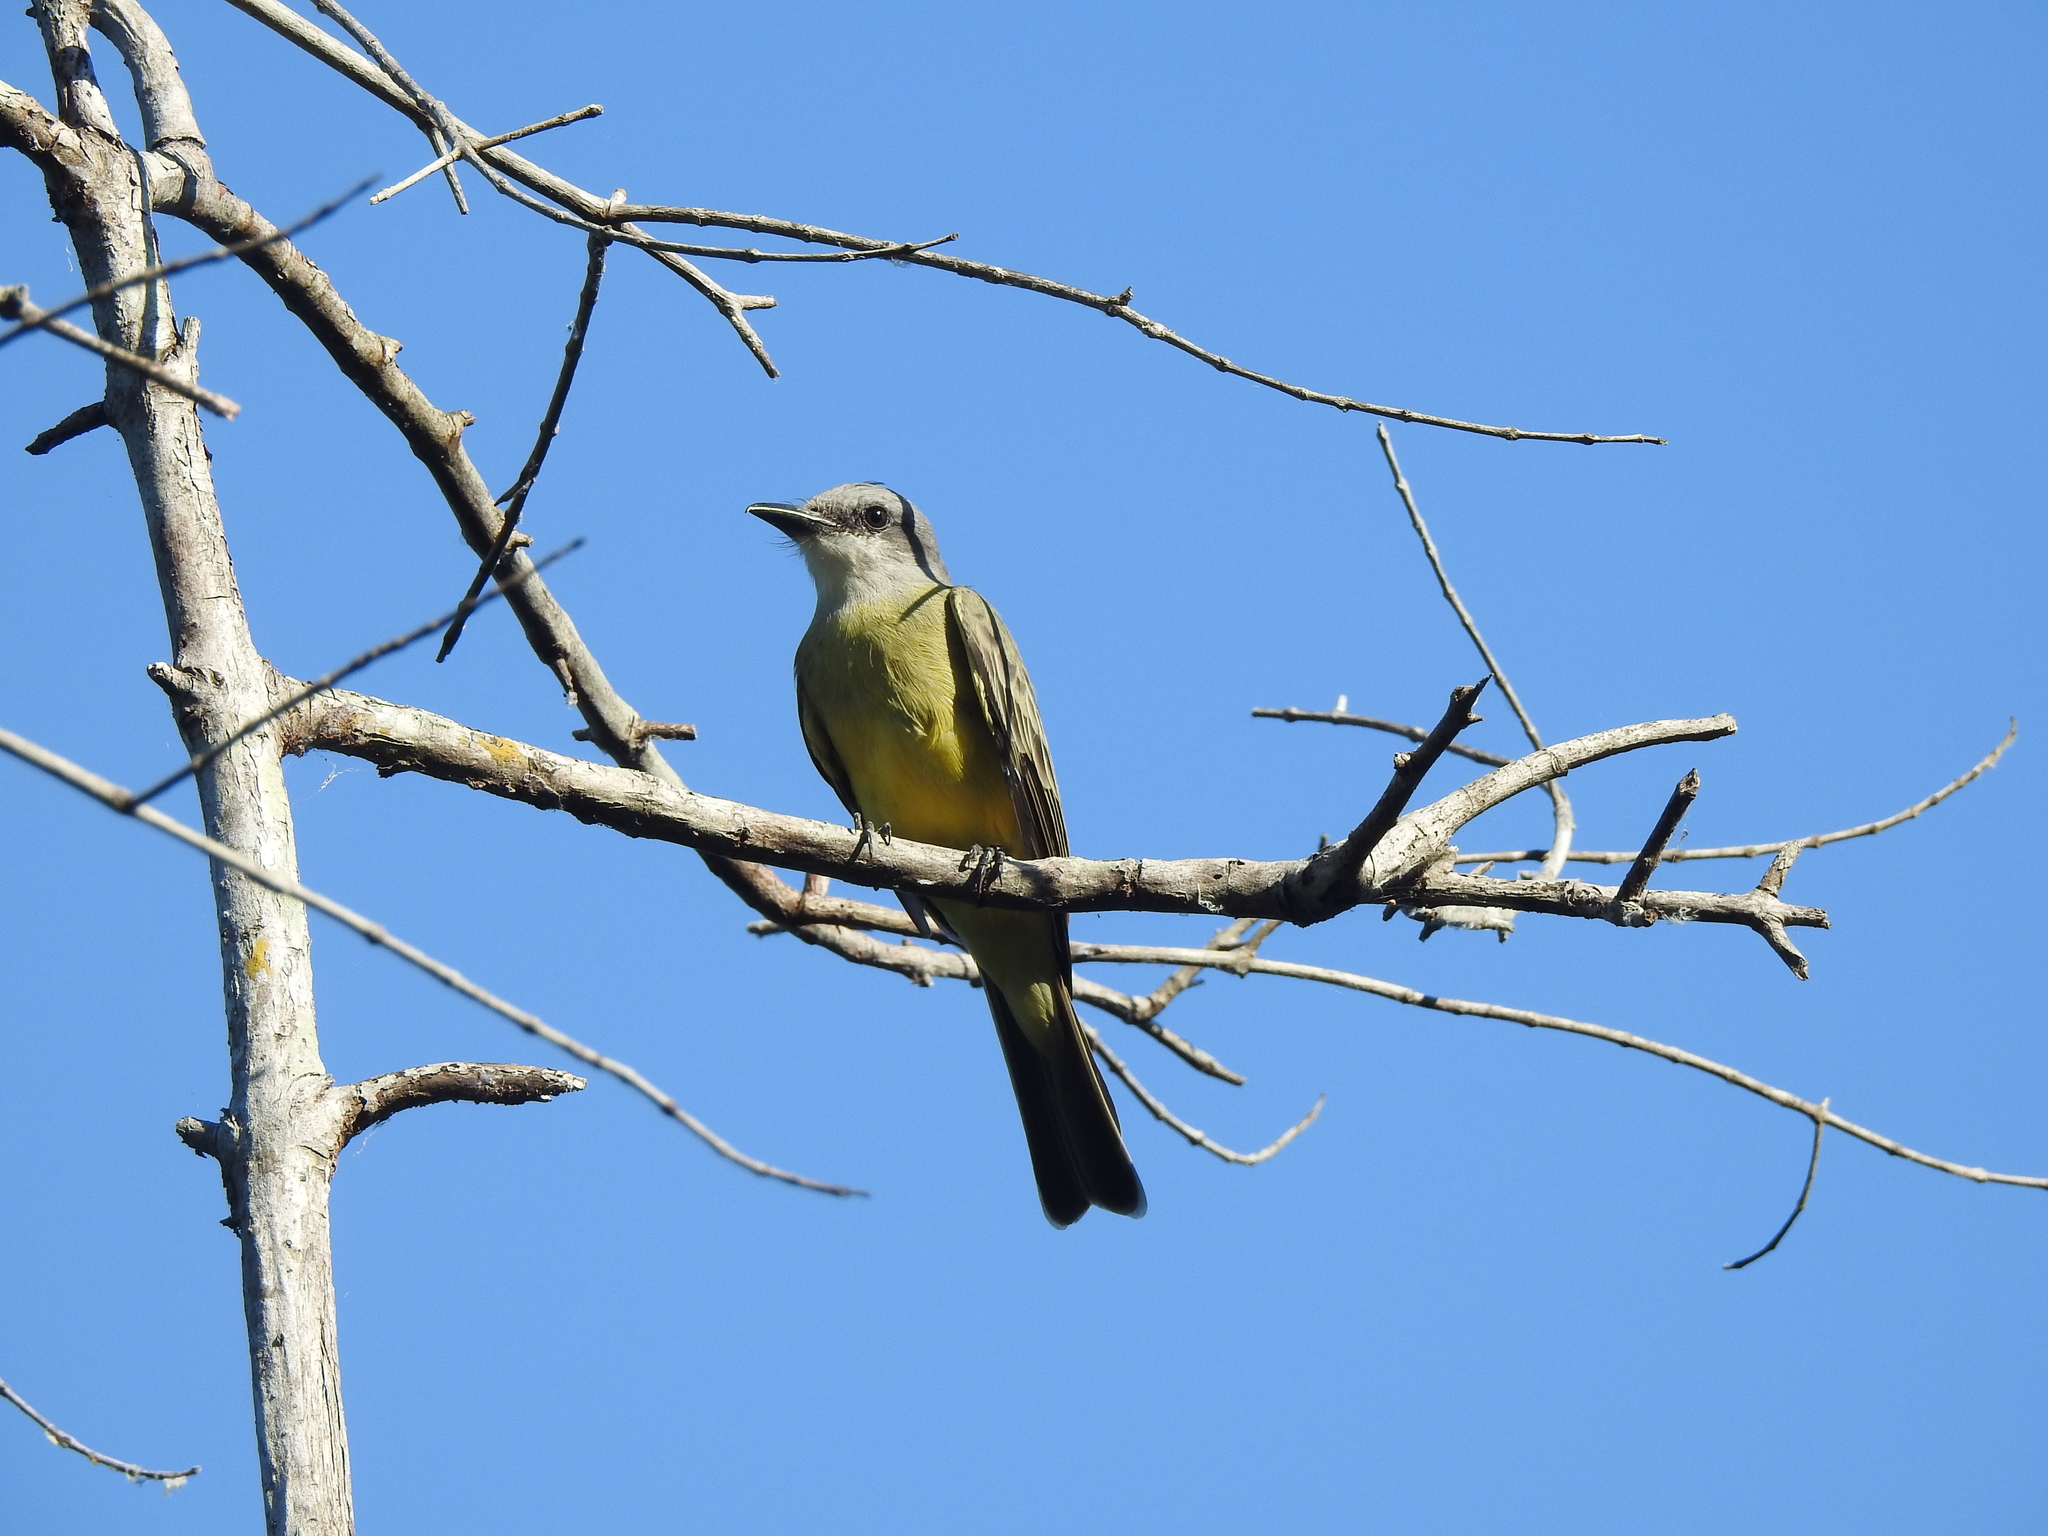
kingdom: Animalia
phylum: Chordata
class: Aves
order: Passeriformes
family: Tyrannidae
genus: Tyrannus
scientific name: Tyrannus melancholicus
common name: Tropical kingbird
